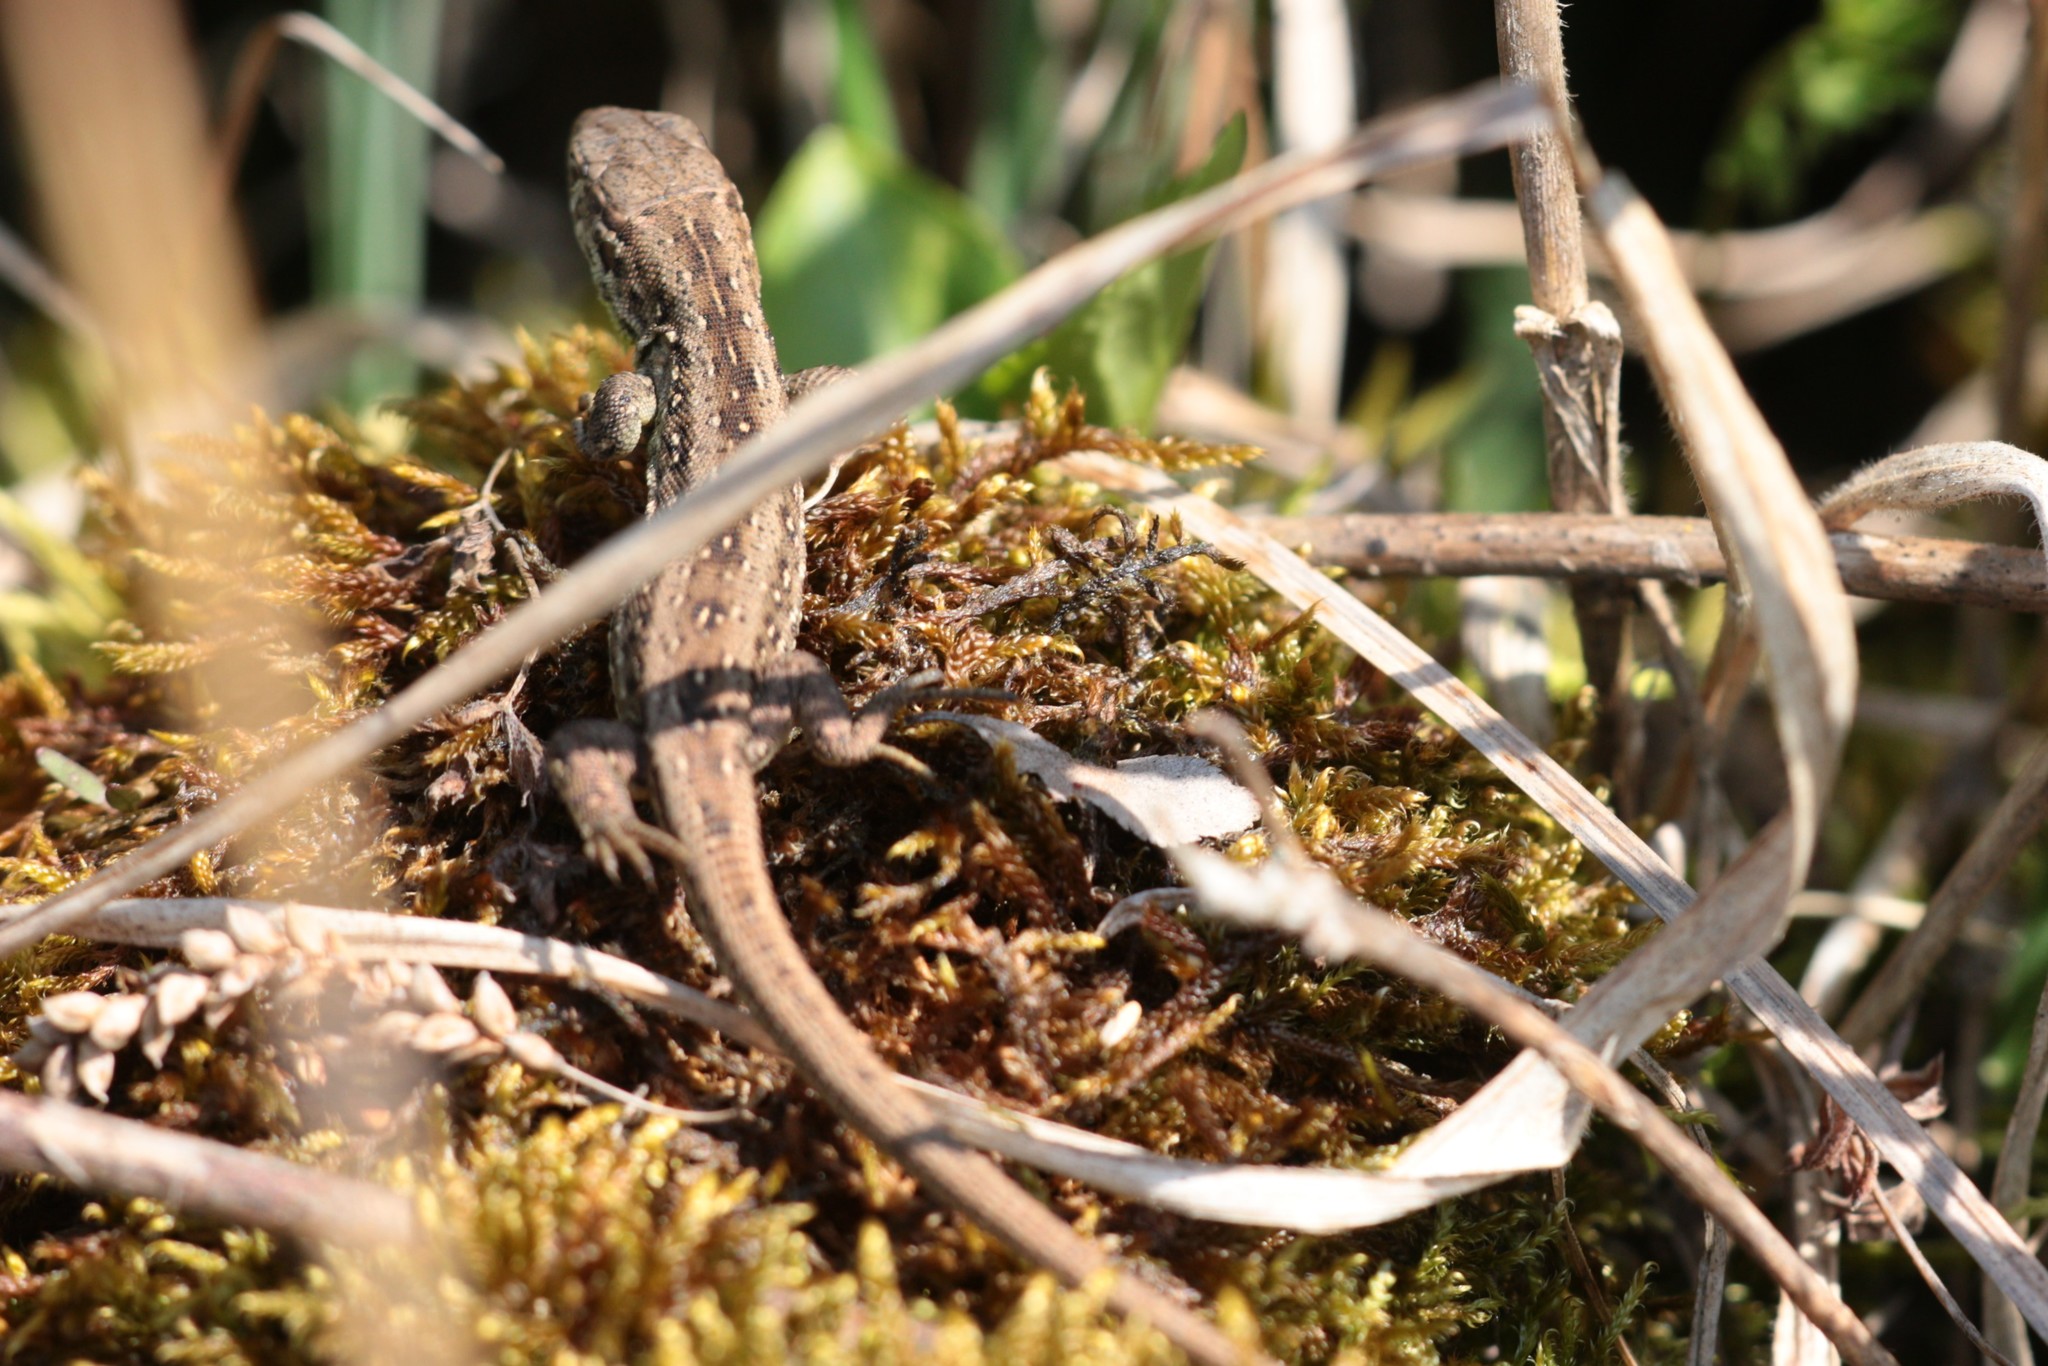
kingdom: Animalia
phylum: Chordata
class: Squamata
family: Lacertidae
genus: Lacerta
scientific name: Lacerta agilis
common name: Sand lizard
